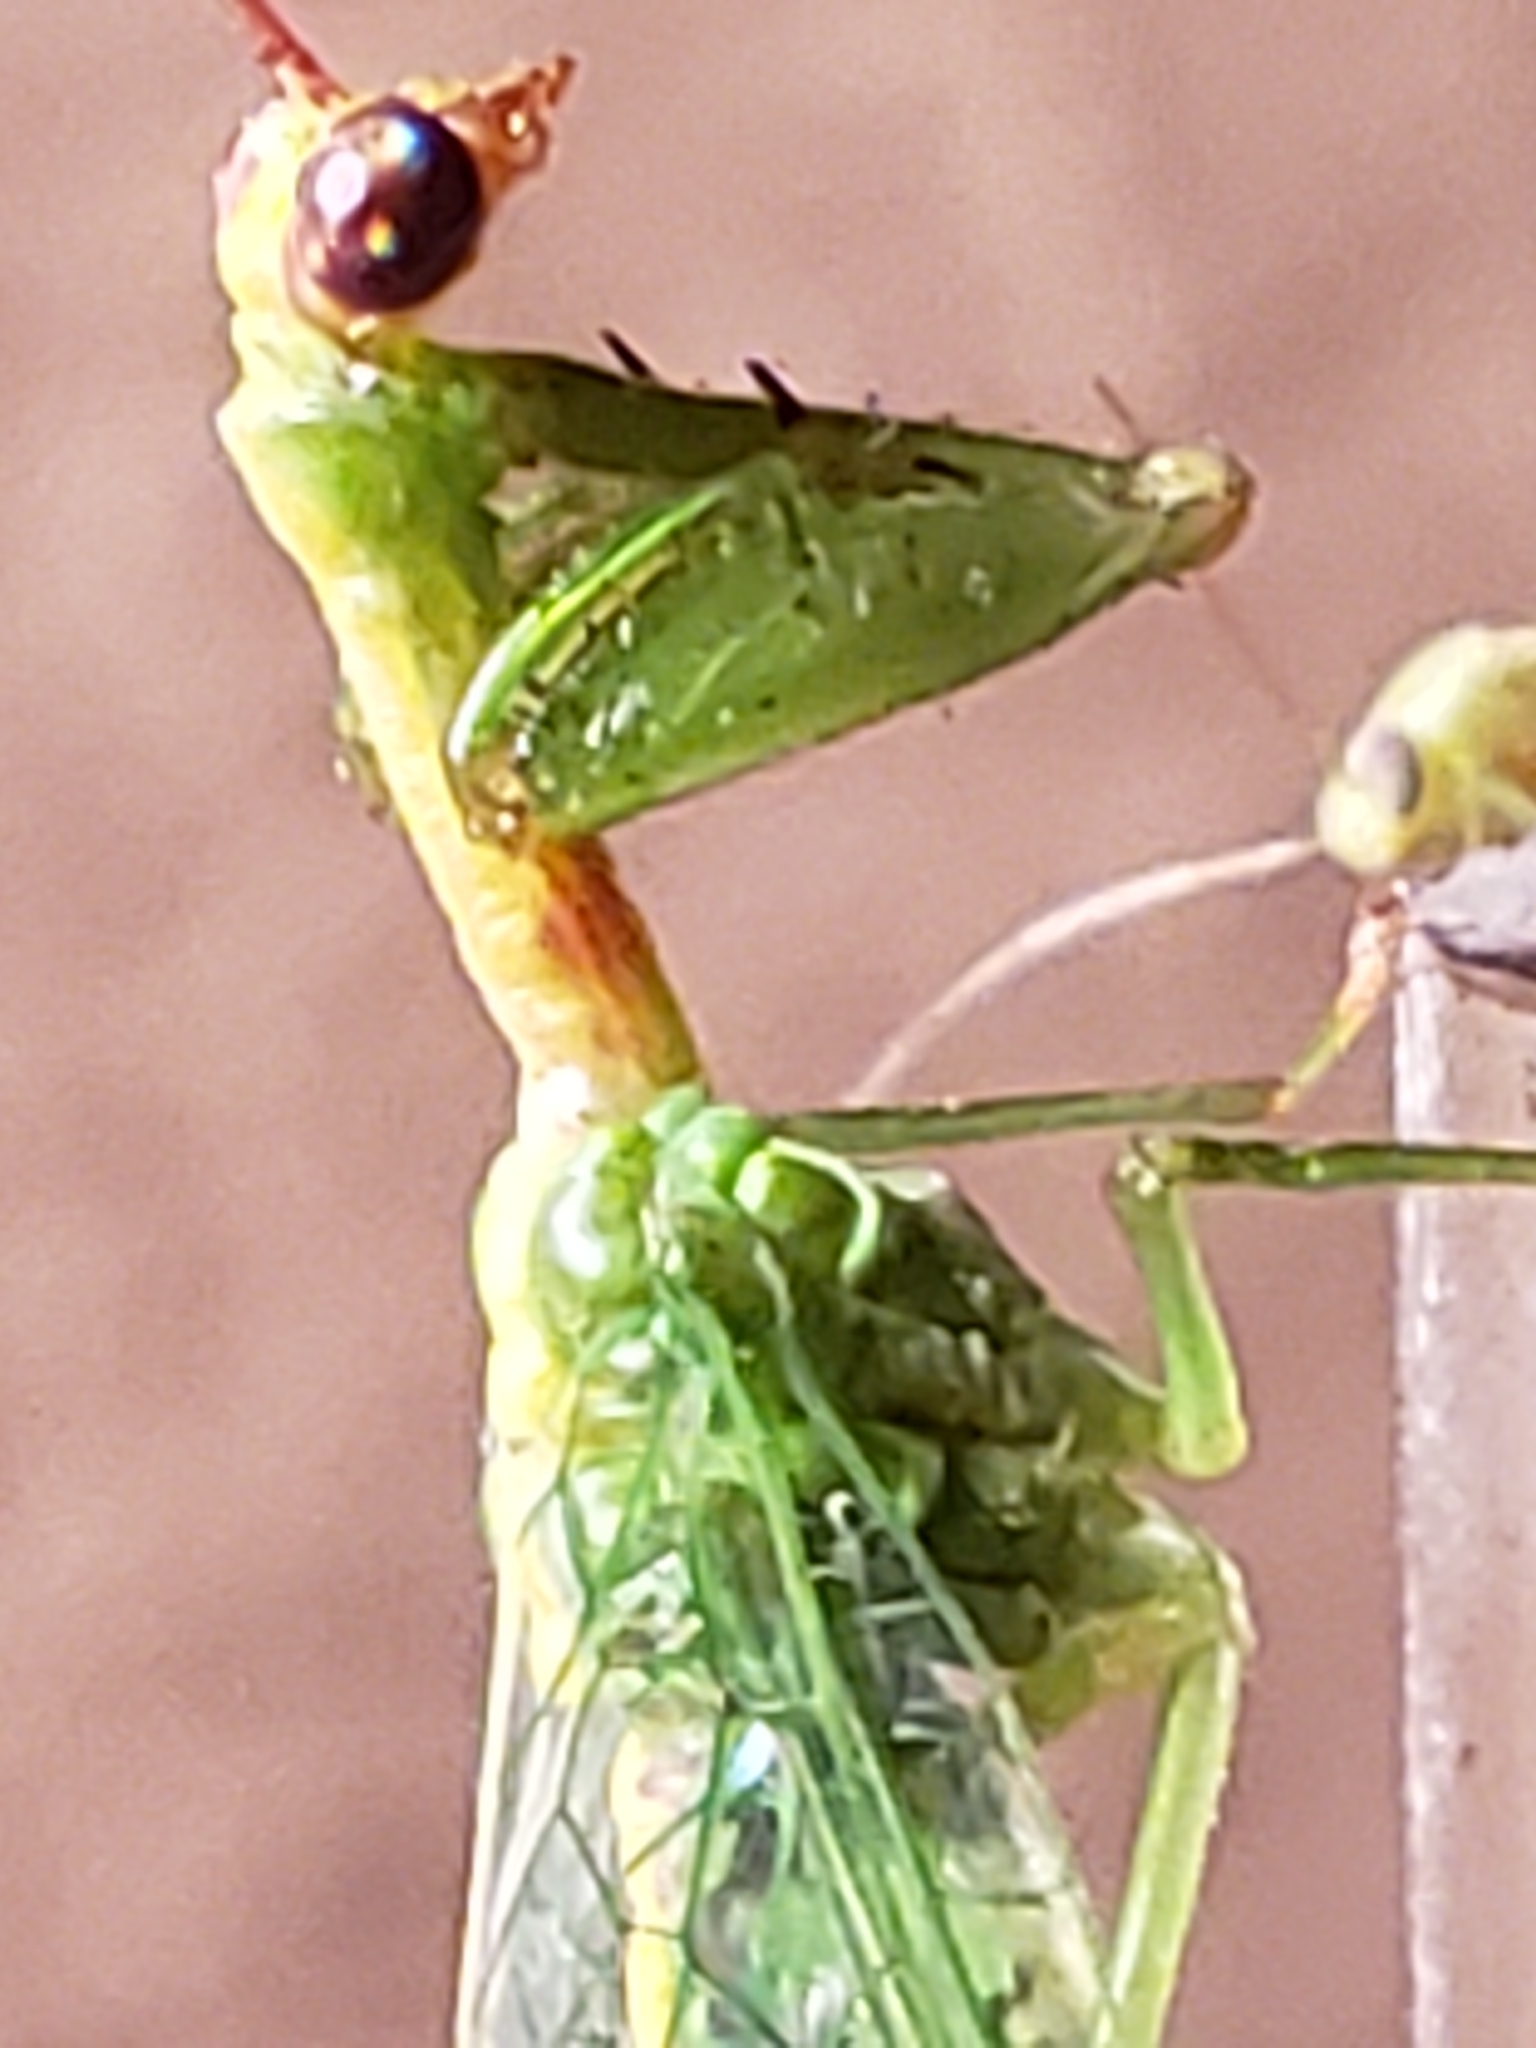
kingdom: Animalia
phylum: Arthropoda
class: Insecta
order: Neuroptera
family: Mantispidae
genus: Zeugomantispa
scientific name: Zeugomantispa minuta
